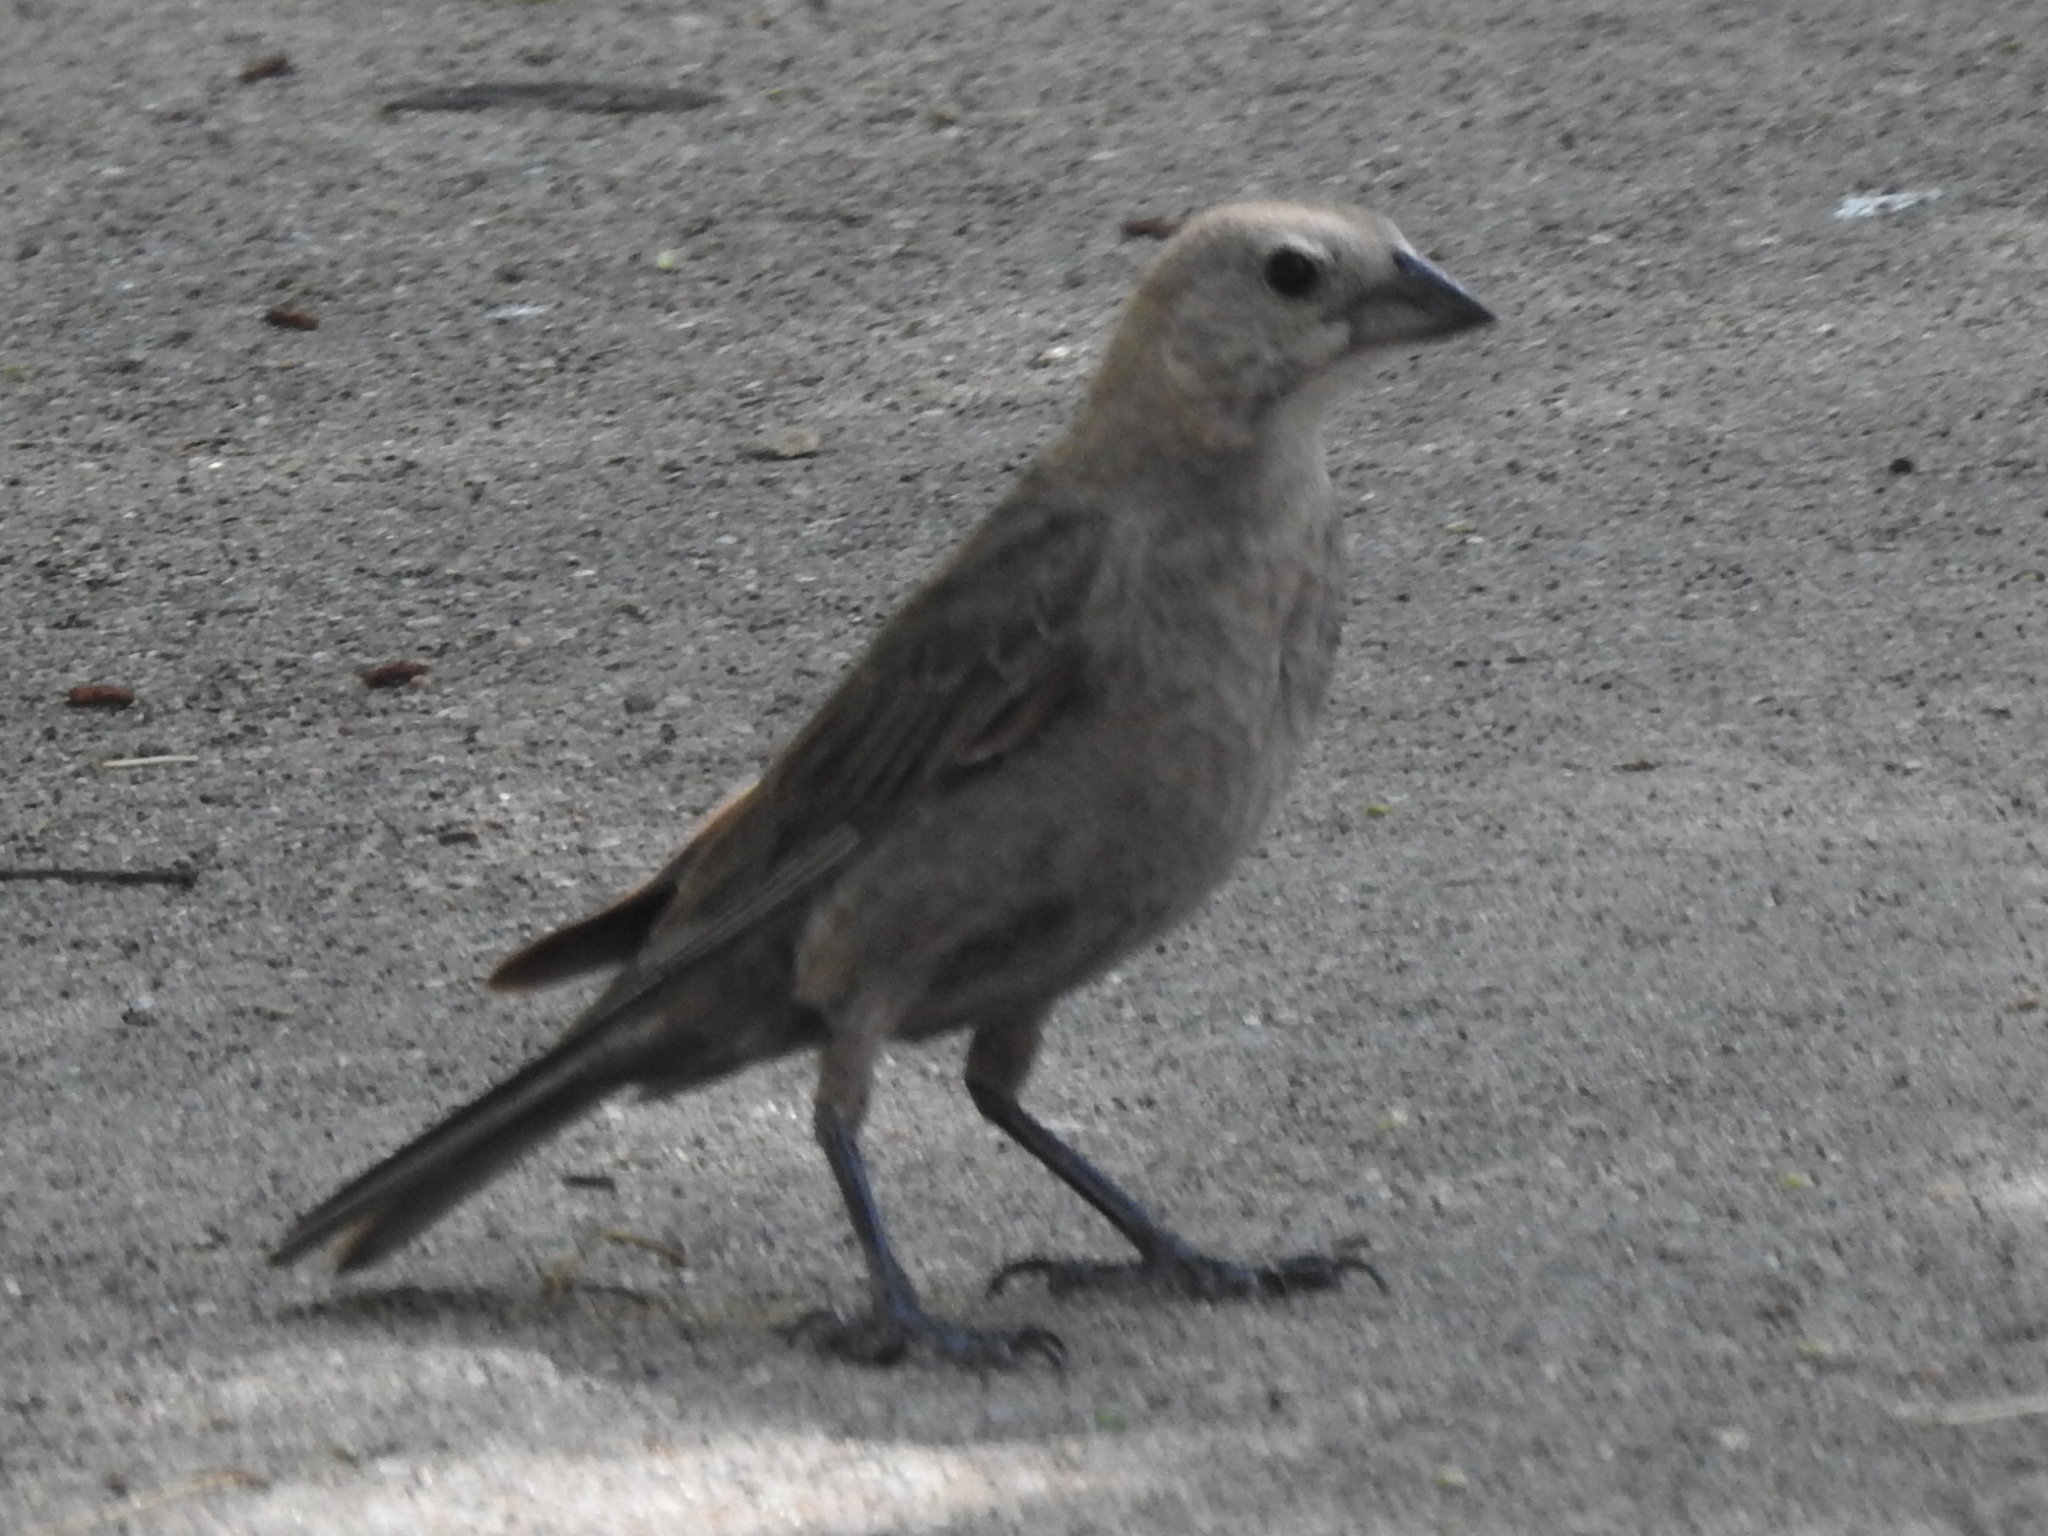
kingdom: Animalia
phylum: Chordata
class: Aves
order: Passeriformes
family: Icteridae
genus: Molothrus
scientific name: Molothrus ater
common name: Brown-headed cowbird
